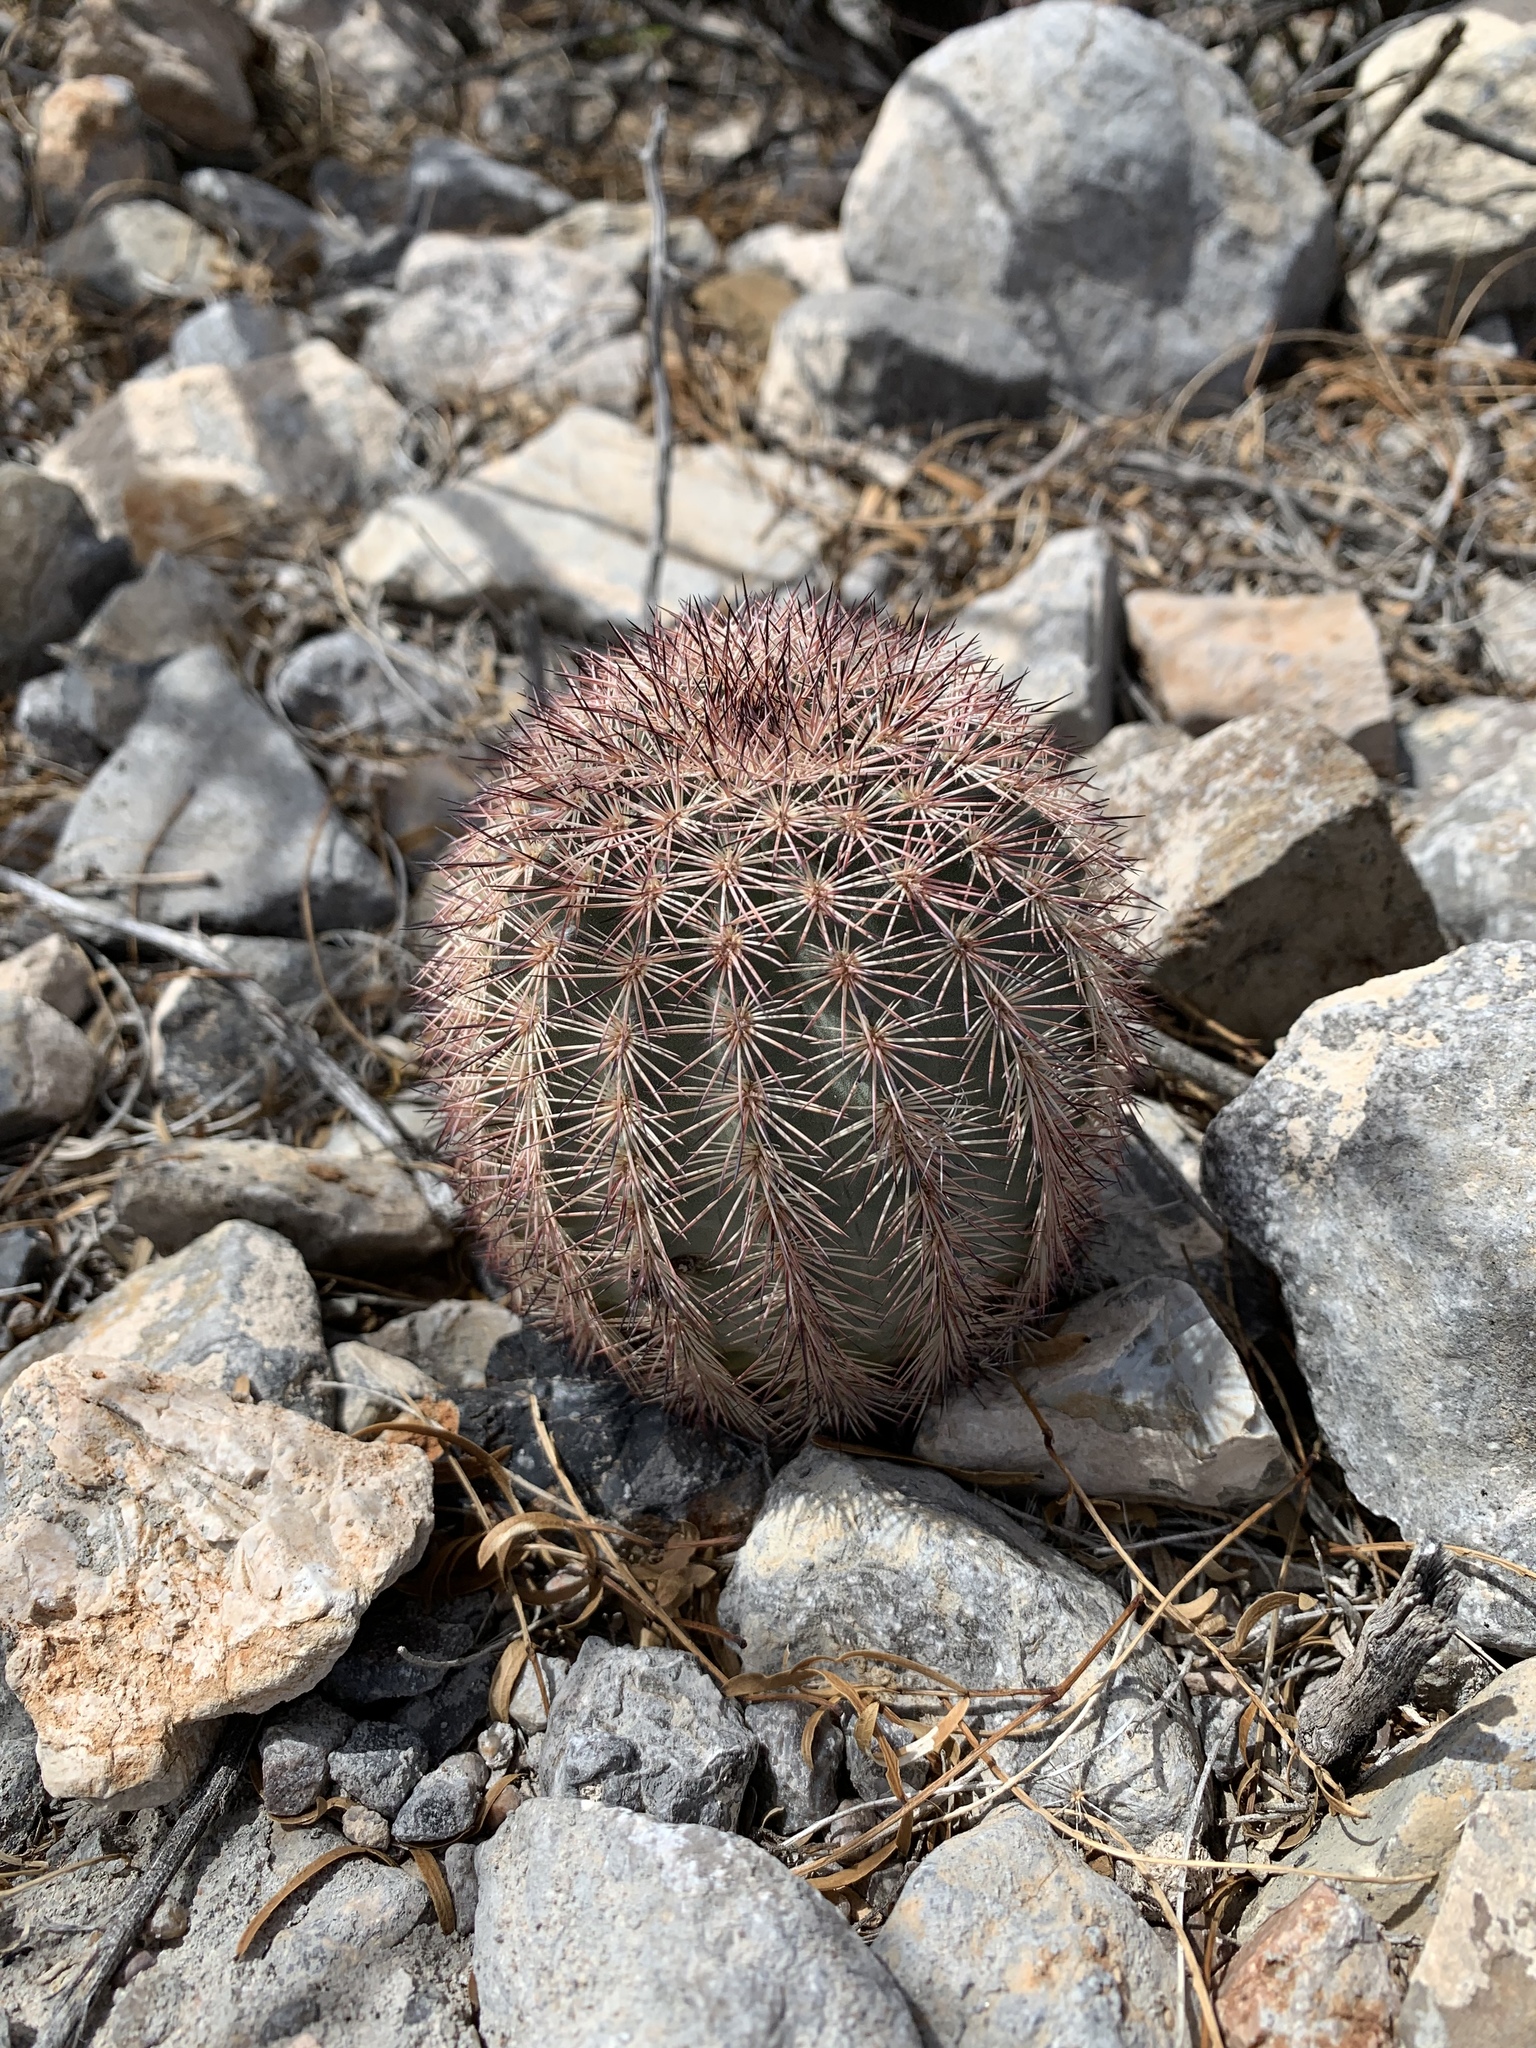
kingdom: Plantae
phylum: Tracheophyta
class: Magnoliopsida
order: Caryophyllales
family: Cactaceae
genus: Echinocereus
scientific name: Echinocereus dasyacanthus
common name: Spiny hedgehog cactus
